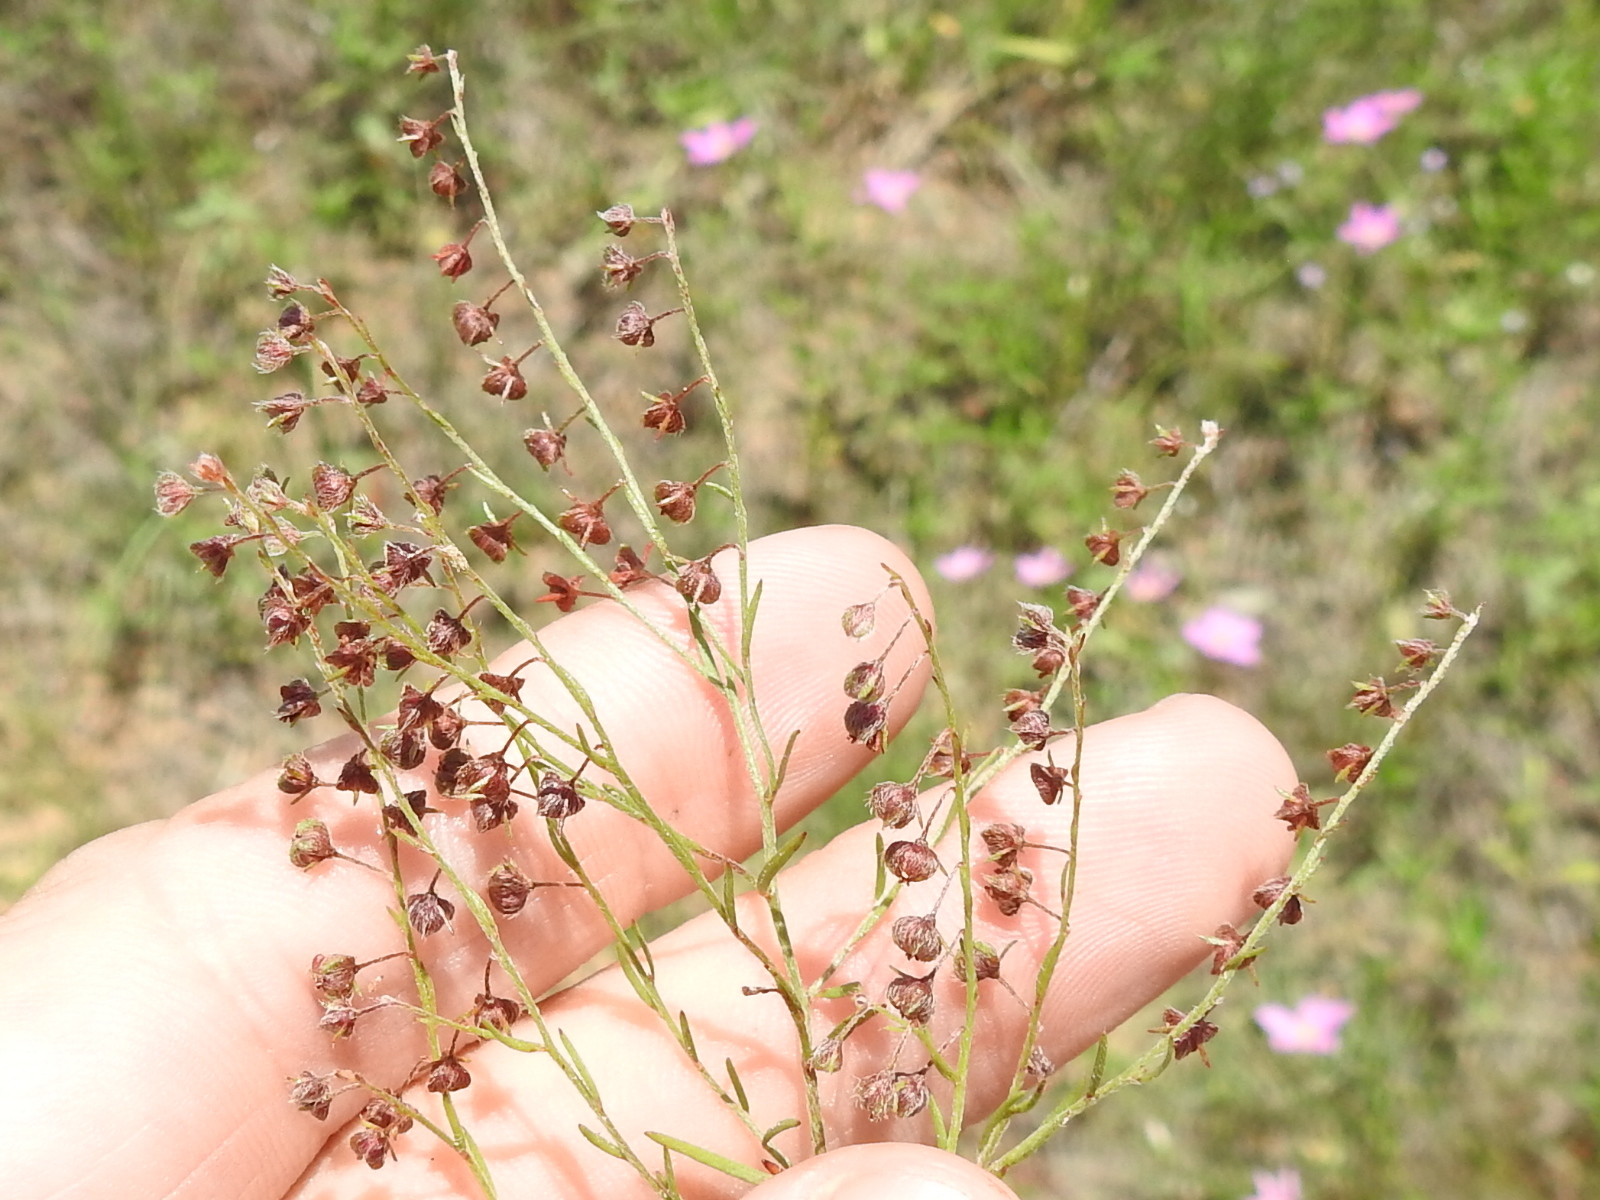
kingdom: Plantae
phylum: Tracheophyta
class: Magnoliopsida
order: Malvales
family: Cistaceae
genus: Lechea
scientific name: Lechea san-sabeana
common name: San saba pinweed
